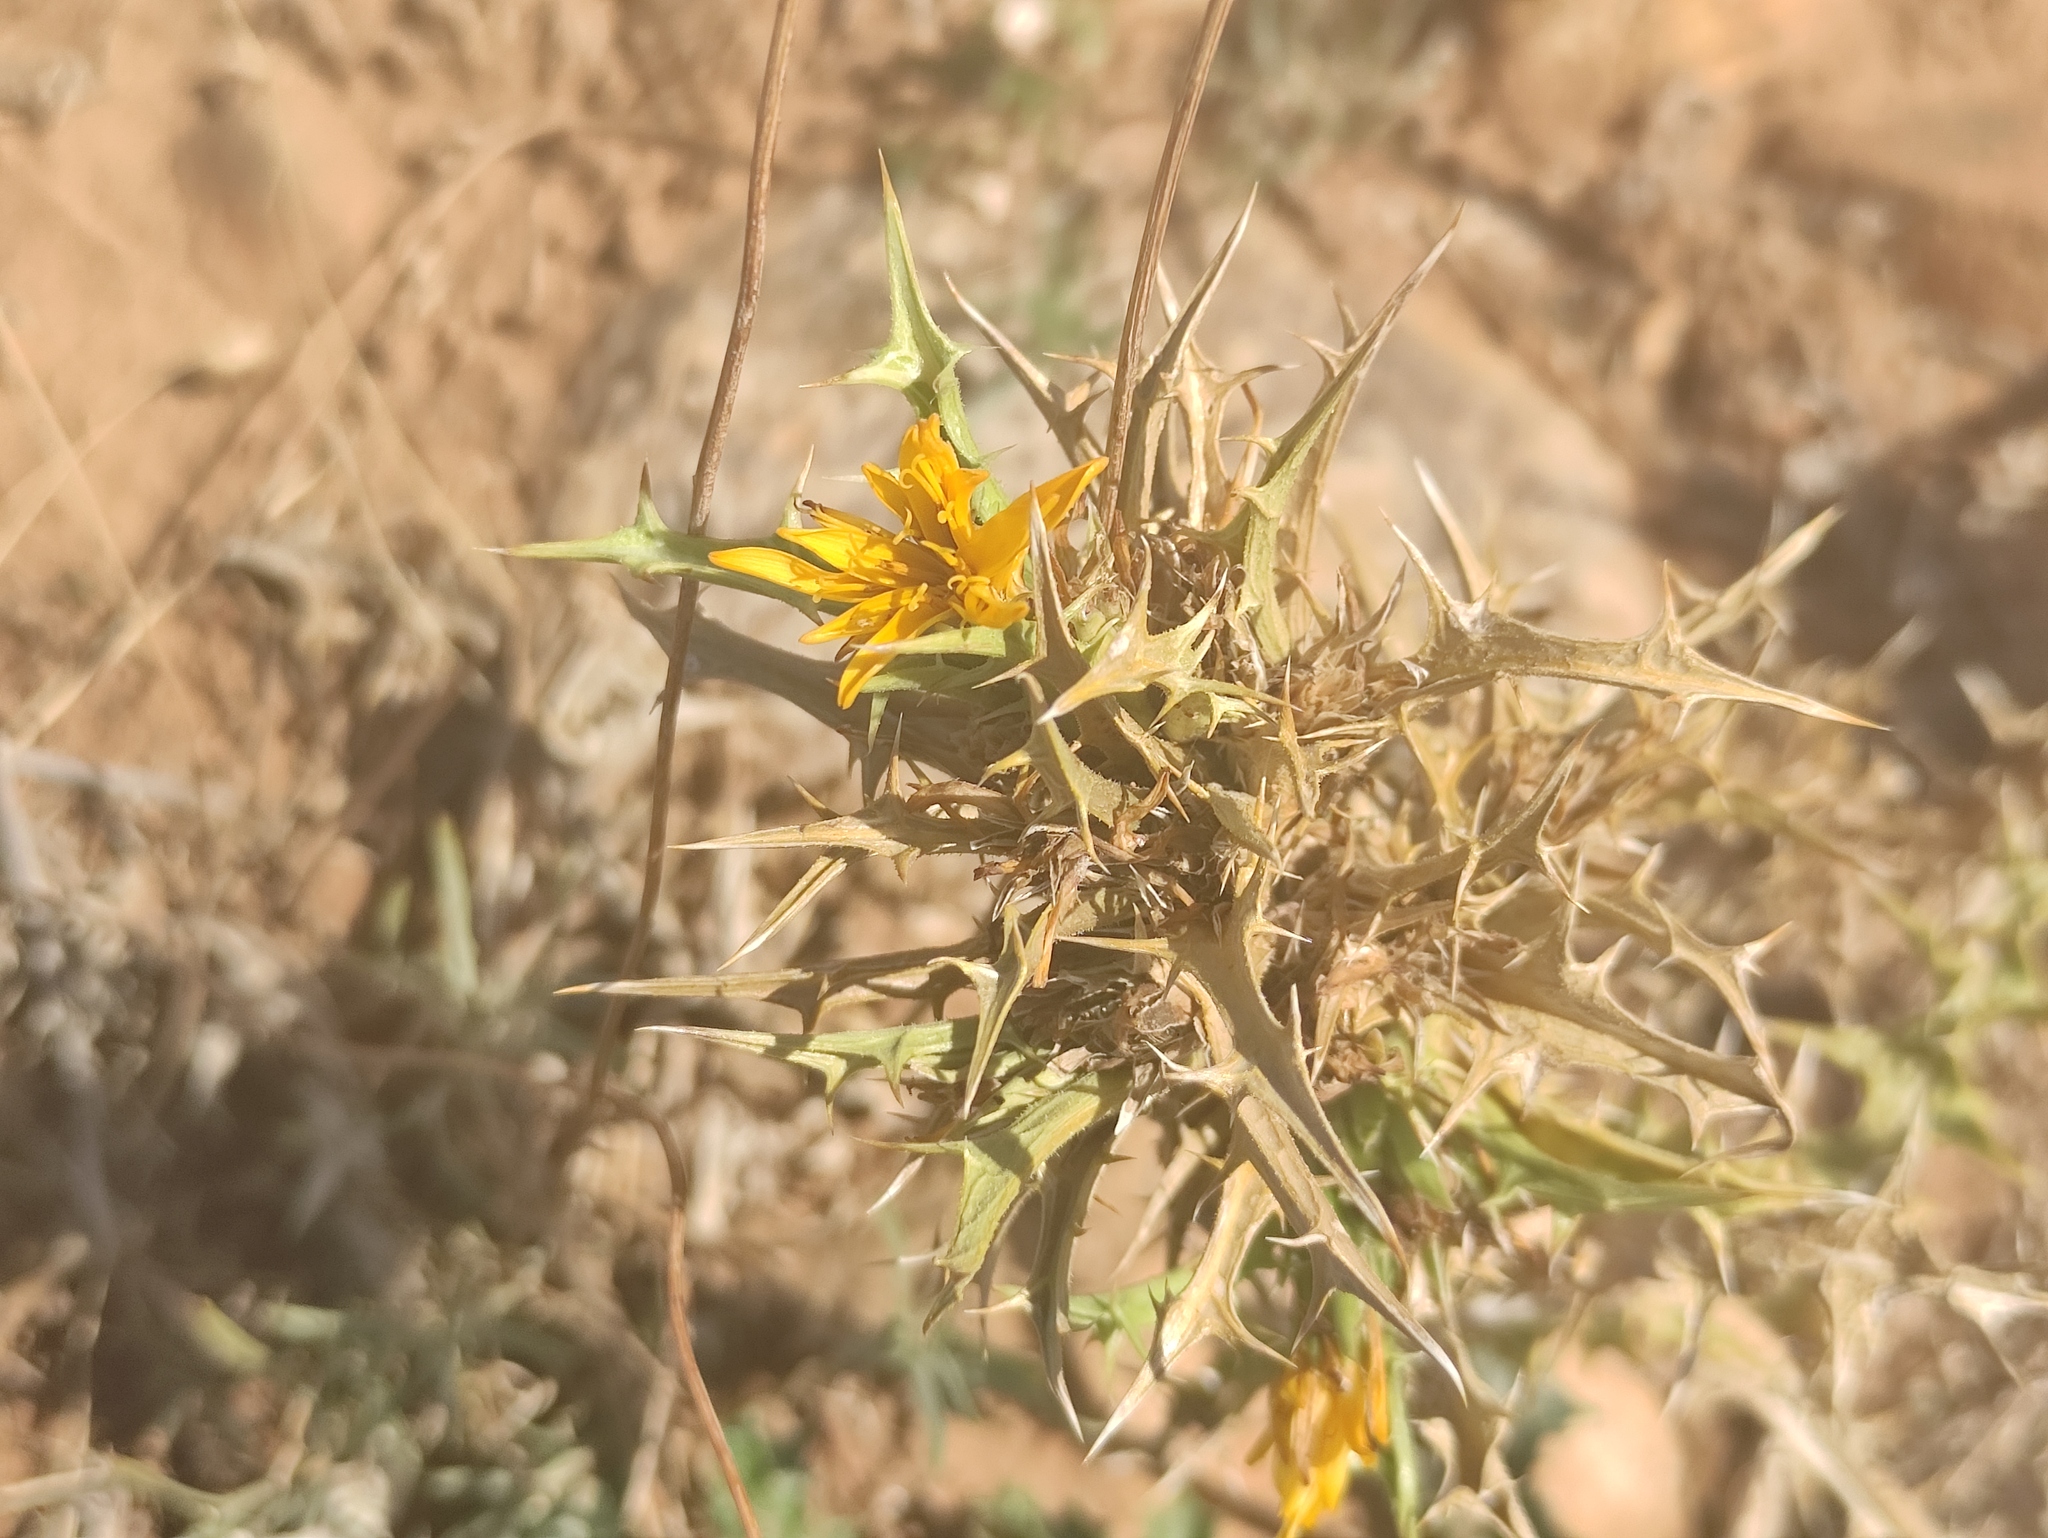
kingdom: Plantae
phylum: Tracheophyta
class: Magnoliopsida
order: Asterales
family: Asteraceae
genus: Scolymus
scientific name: Scolymus hispanicus
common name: Golden thistle
